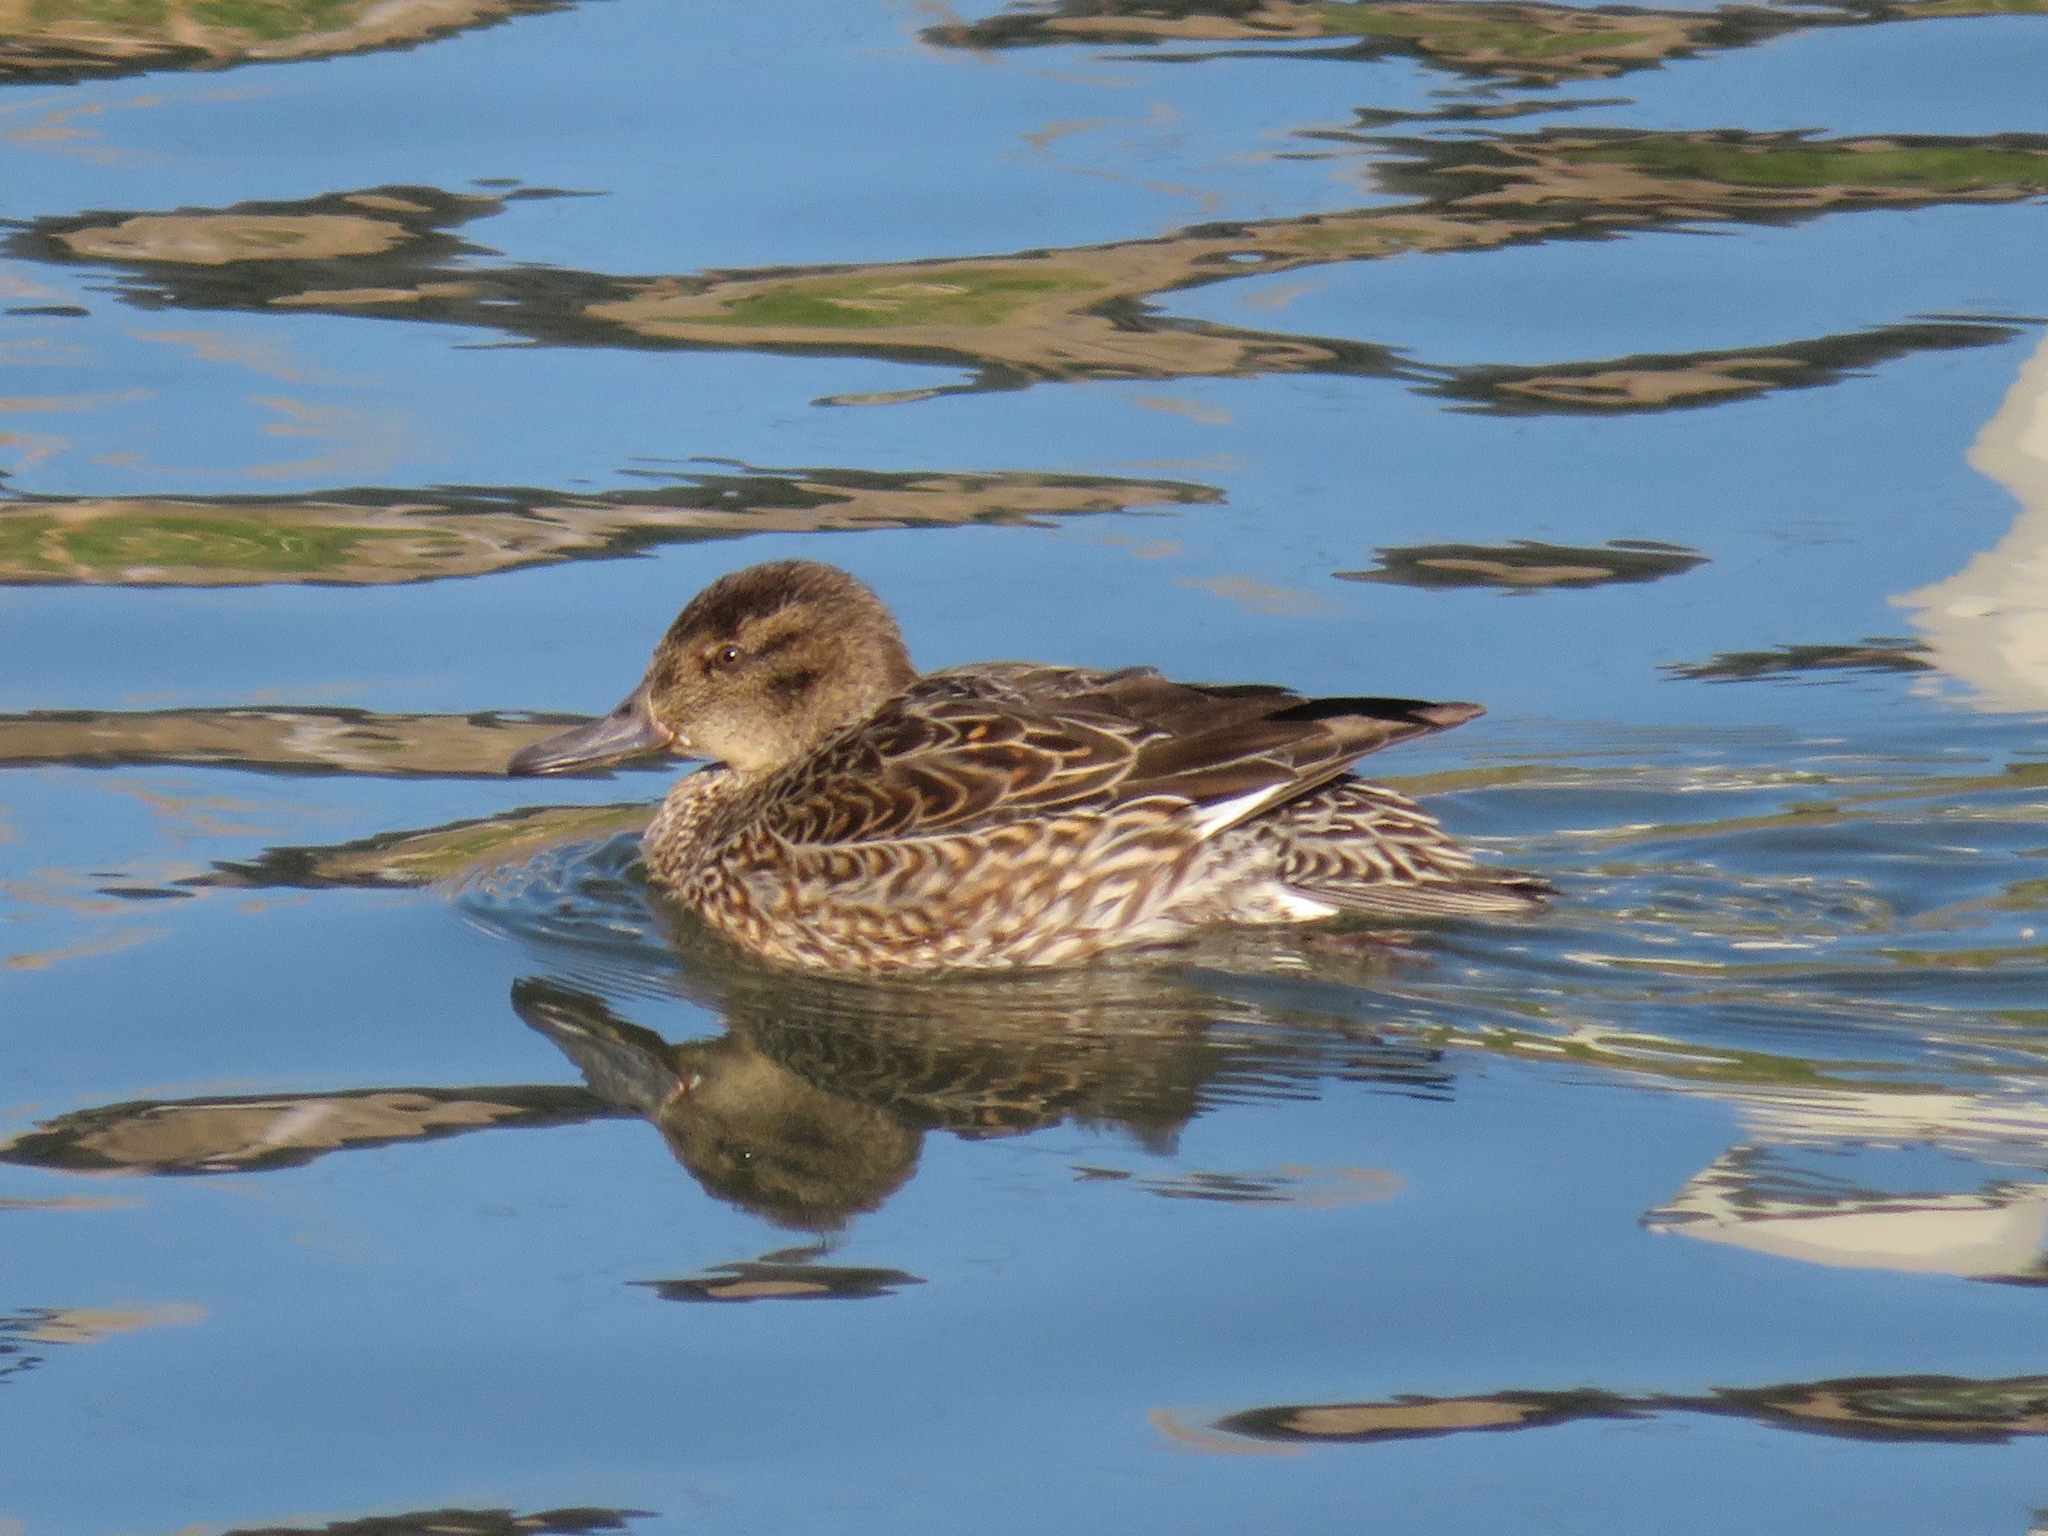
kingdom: Animalia
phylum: Chordata
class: Aves
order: Anseriformes
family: Anatidae
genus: Anas
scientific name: Anas crecca
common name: Eurasian teal
